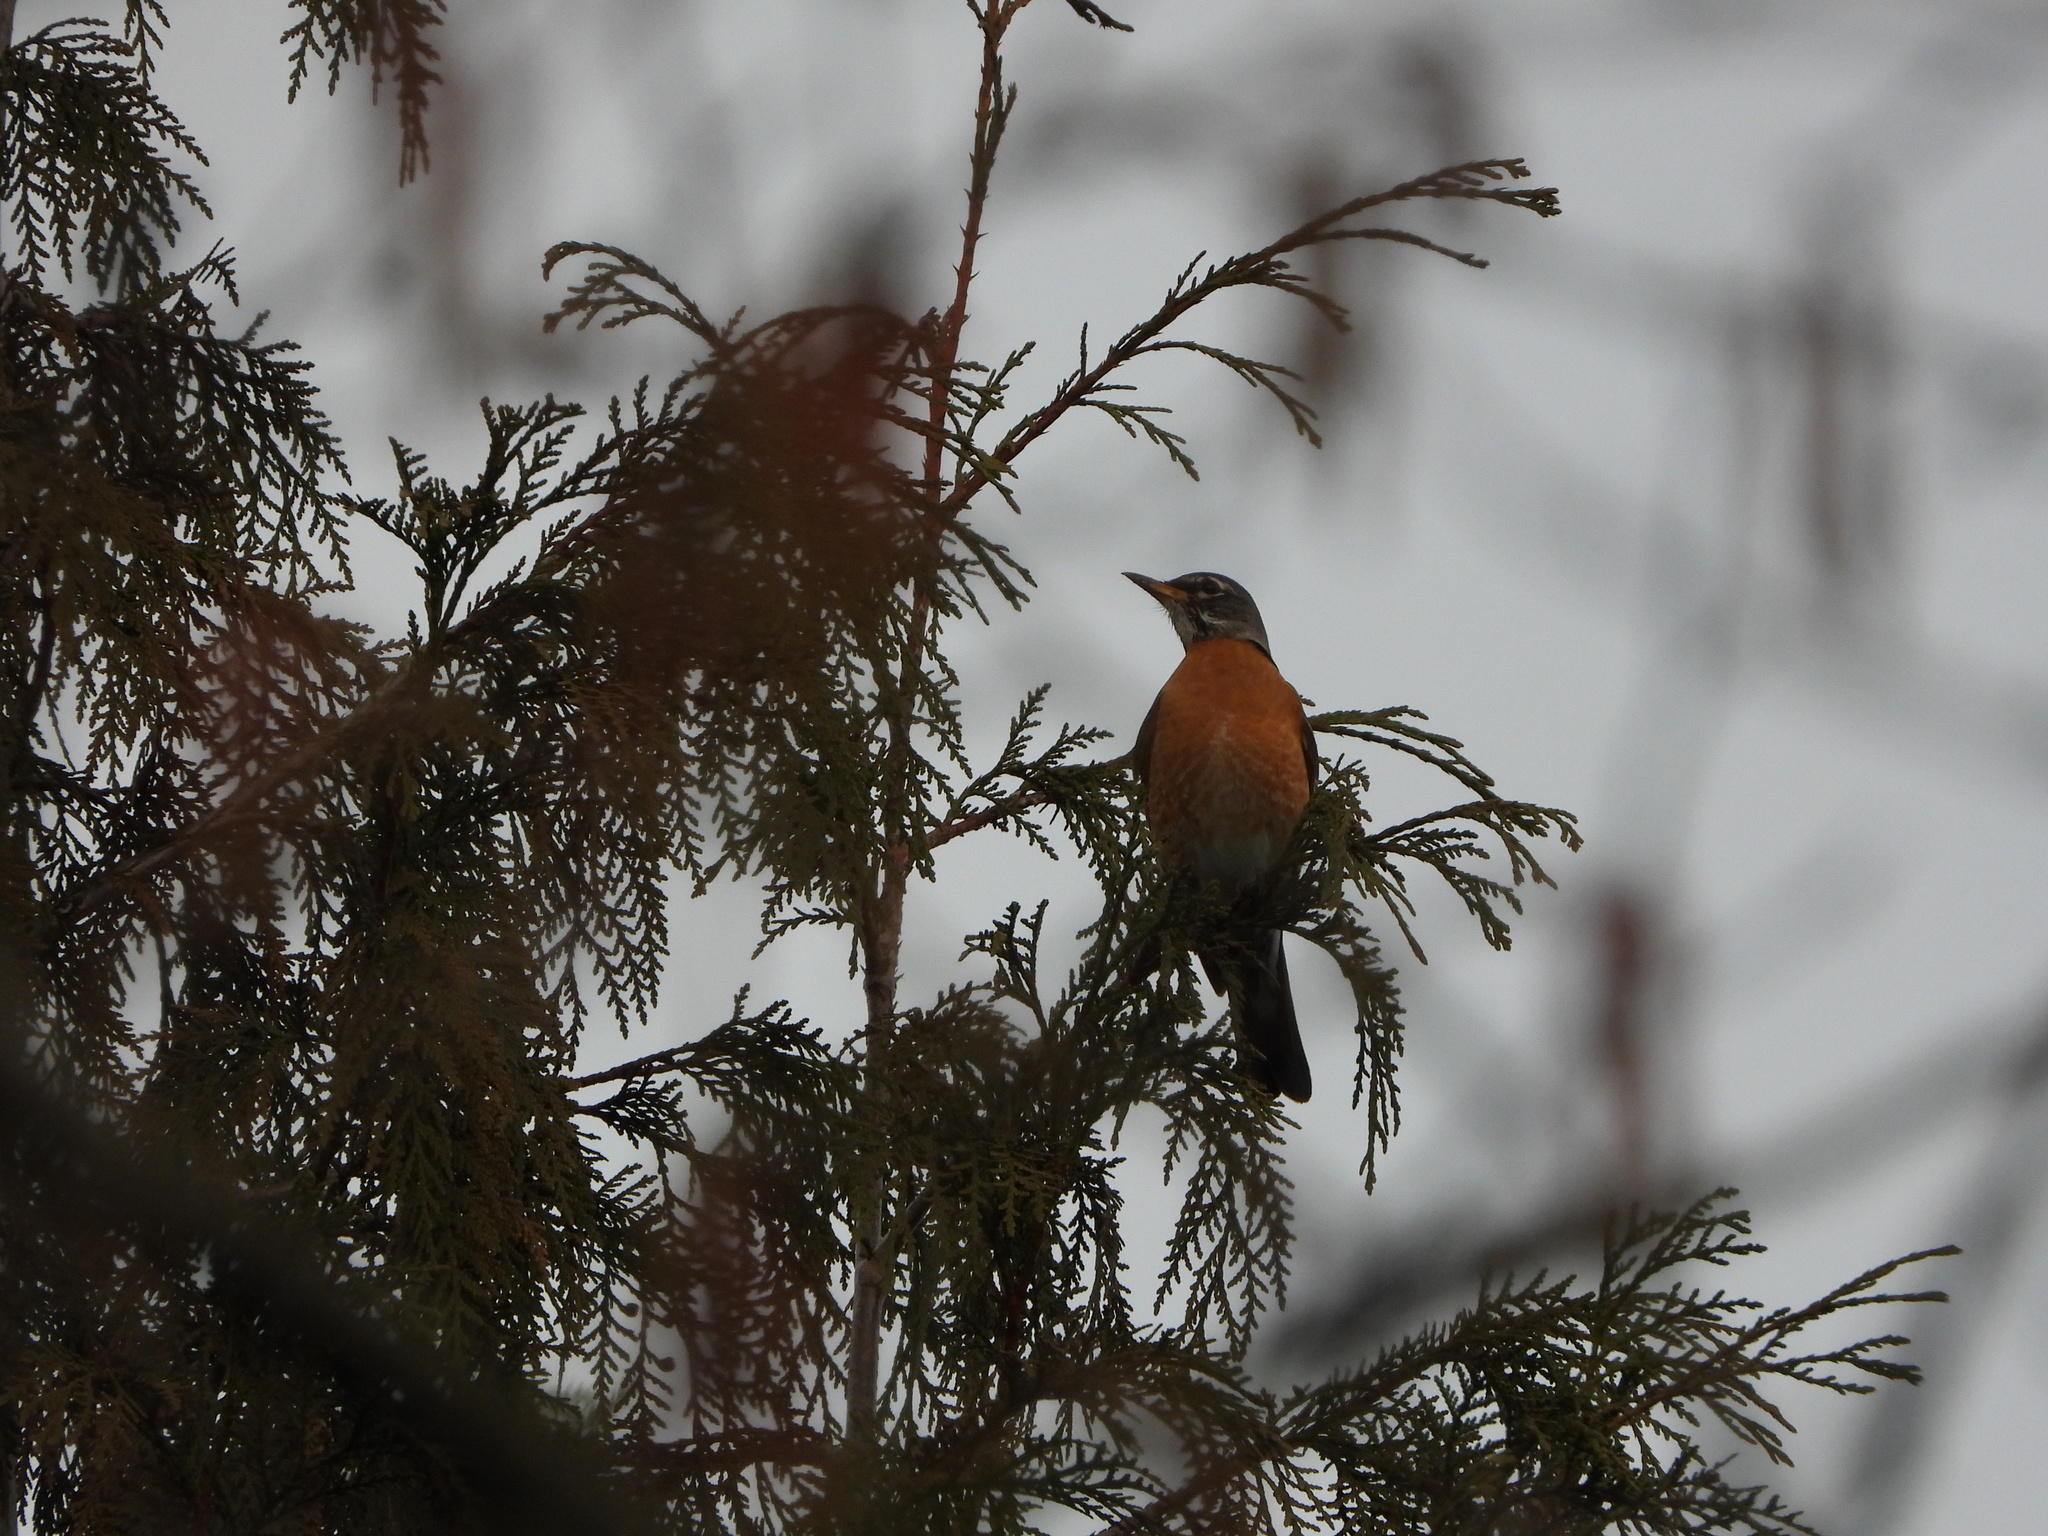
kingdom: Animalia
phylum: Chordata
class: Aves
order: Passeriformes
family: Turdidae
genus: Turdus
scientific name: Turdus migratorius
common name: American robin
